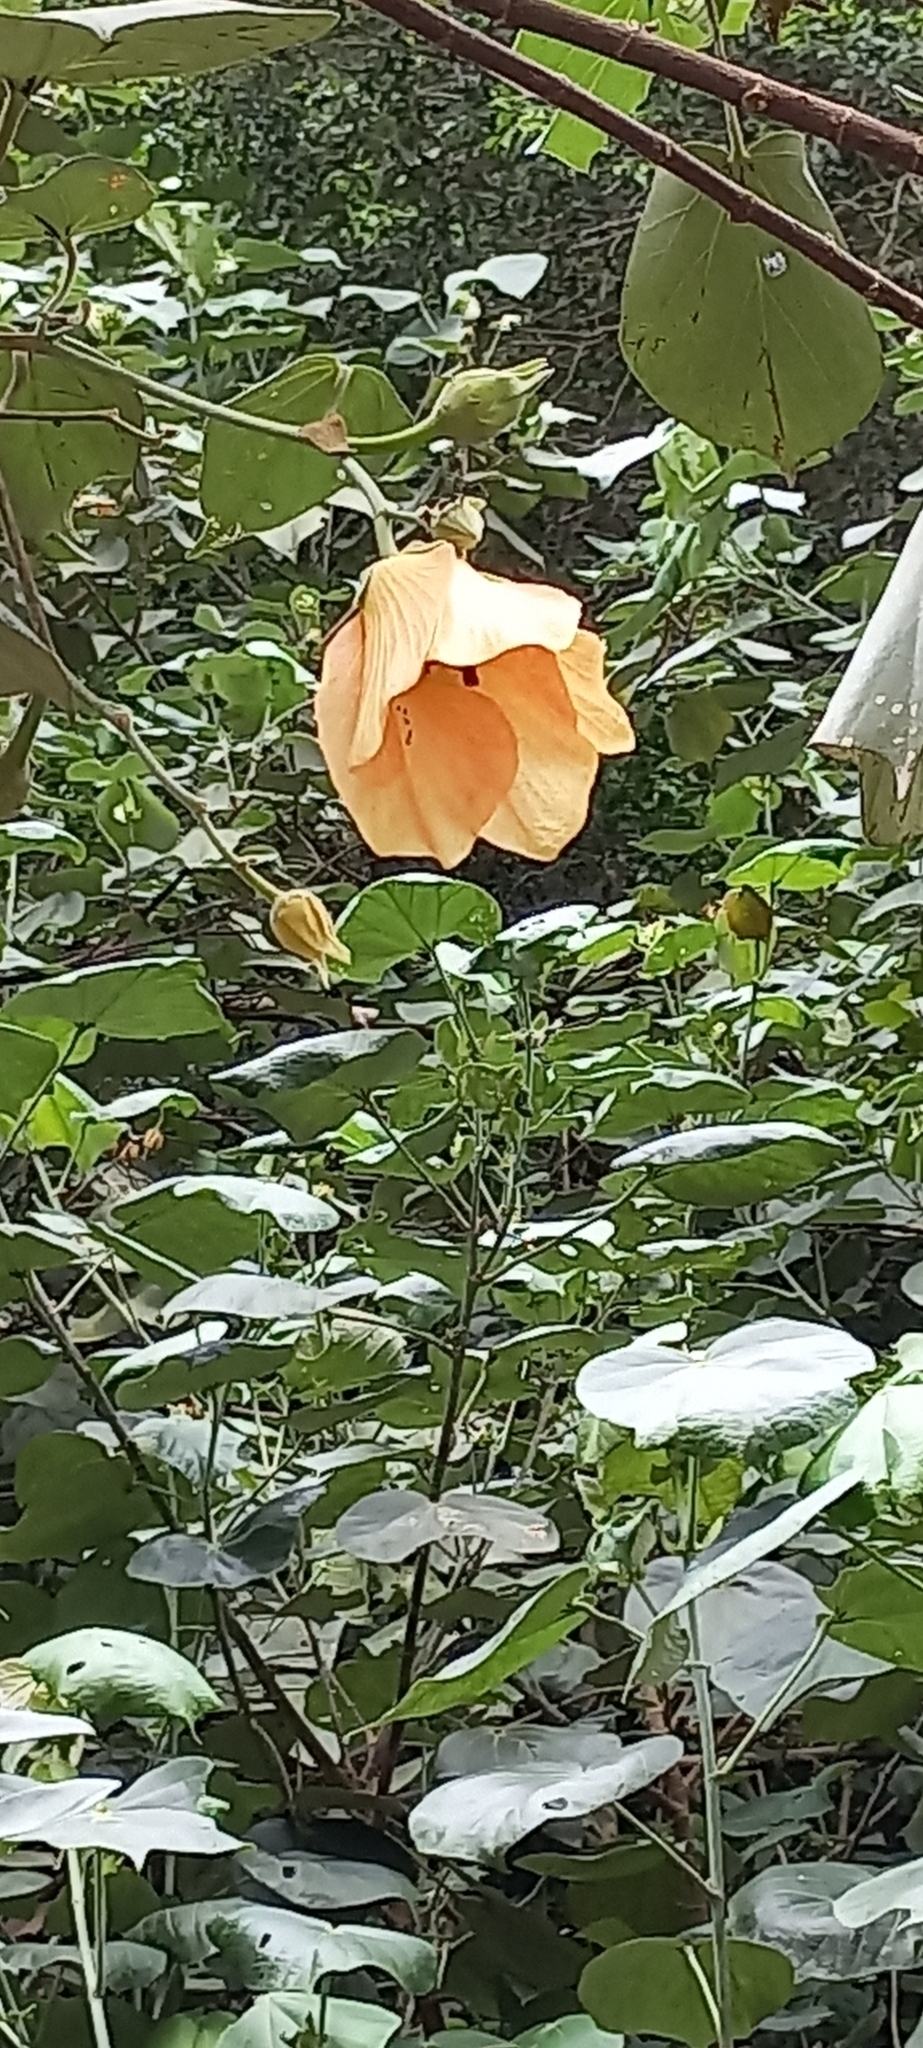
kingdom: Plantae
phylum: Tracheophyta
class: Magnoliopsida
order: Malvales
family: Malvaceae
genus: Talipariti
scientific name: Talipariti tiliaceum
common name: Sea hibiscus
